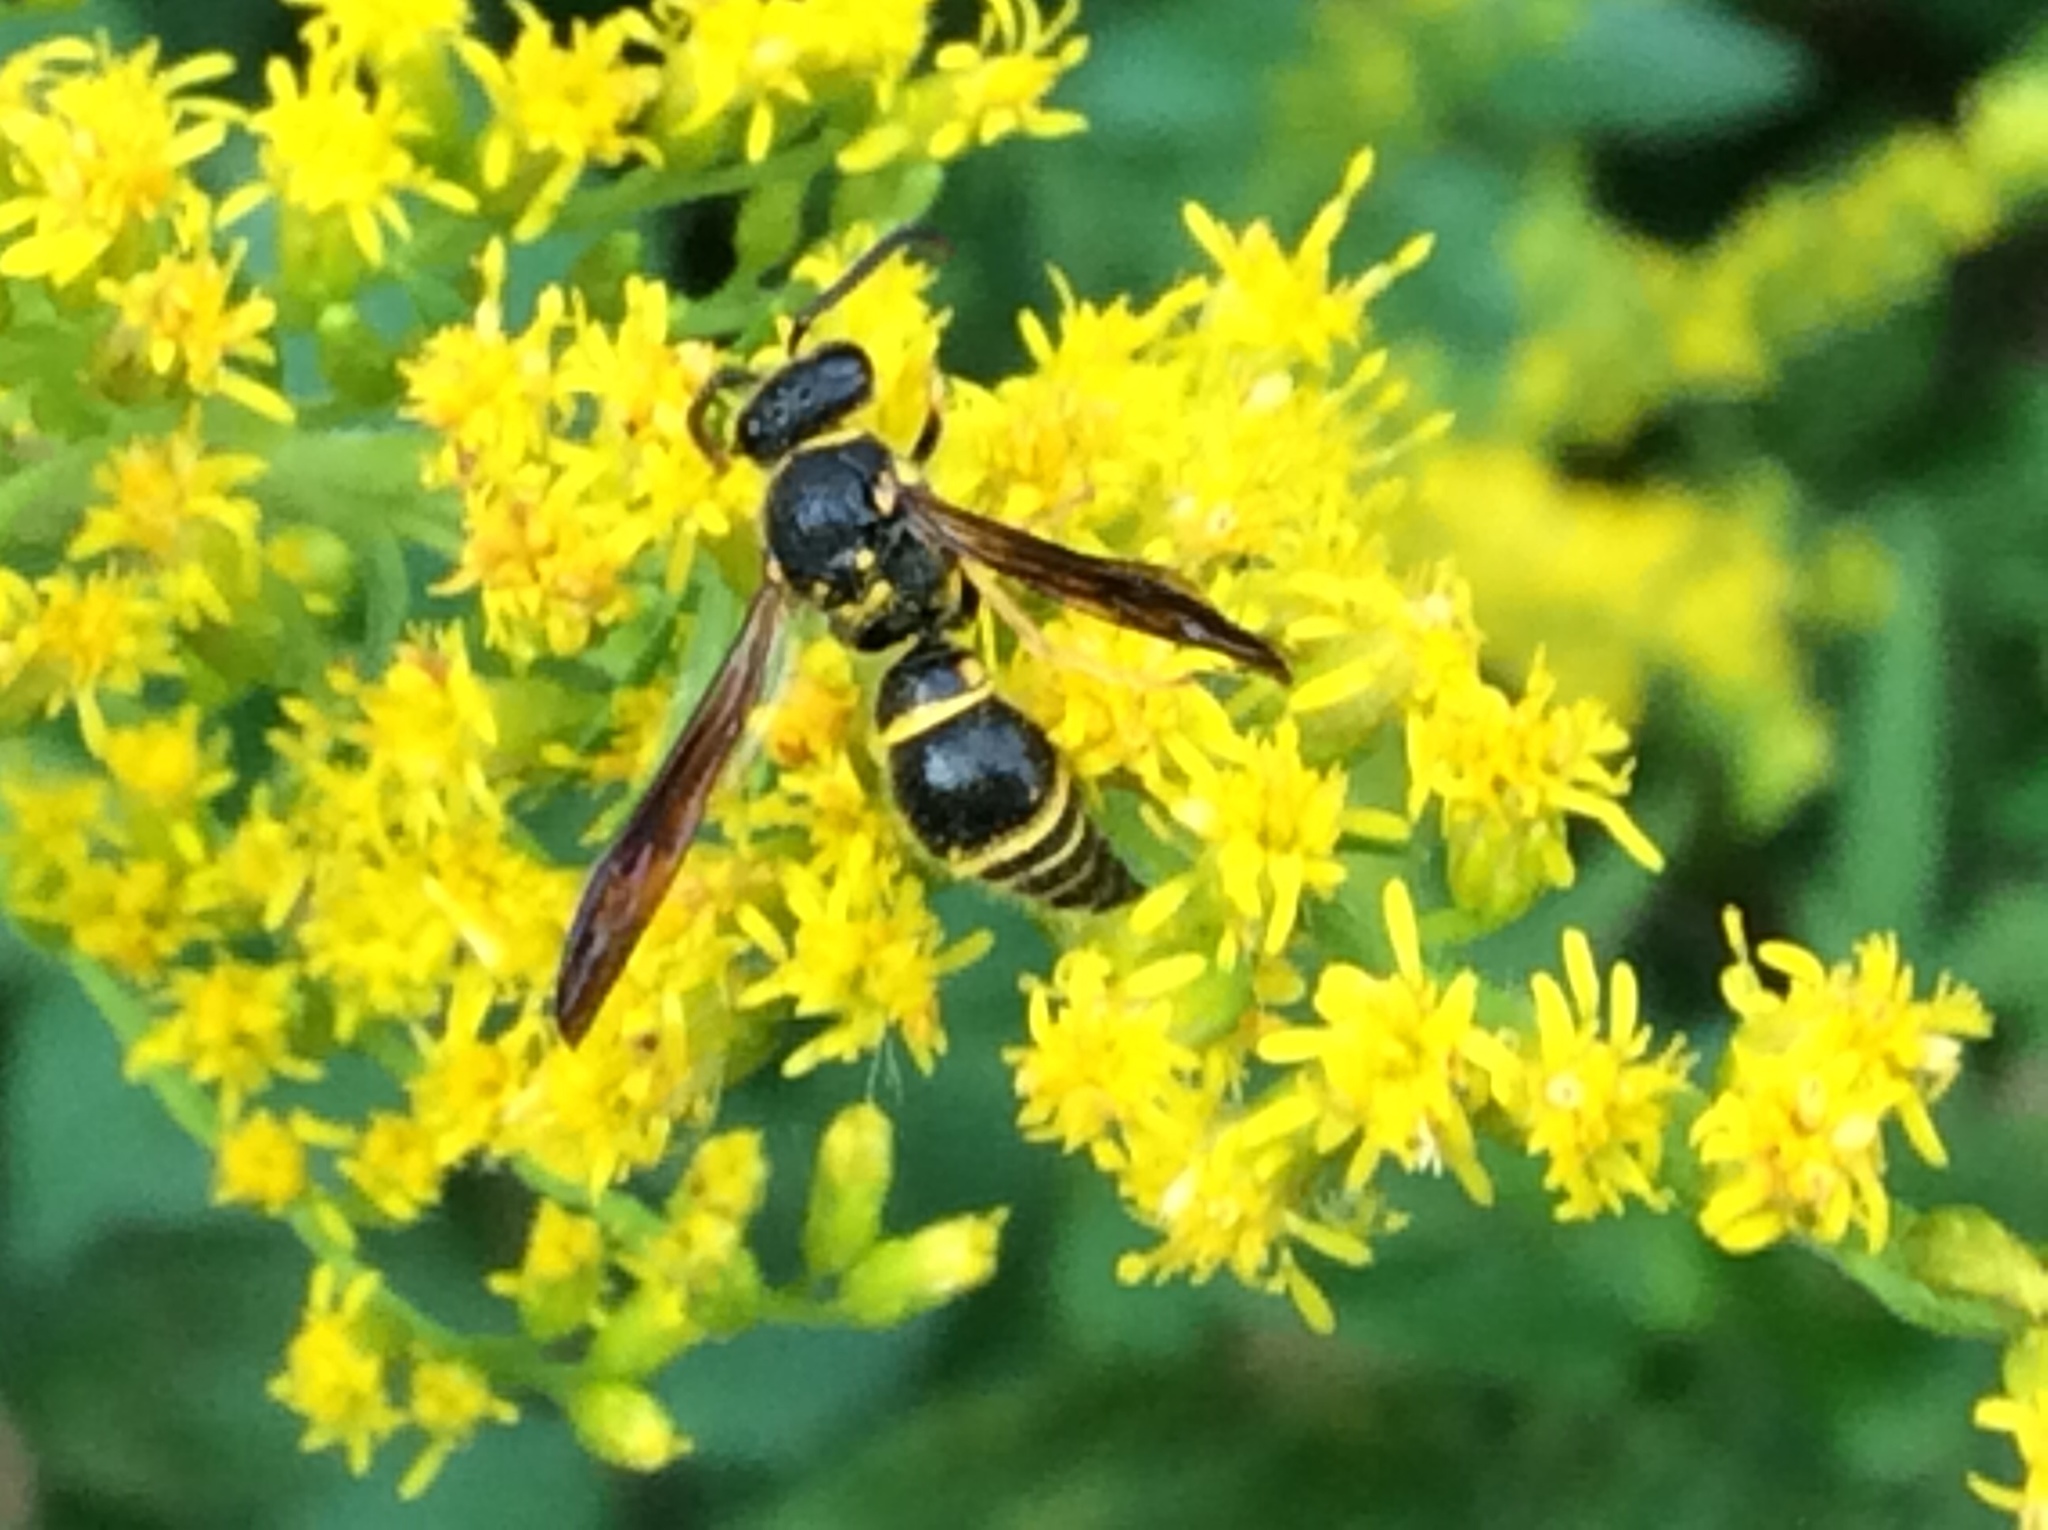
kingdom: Animalia
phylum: Arthropoda
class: Insecta
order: Hymenoptera
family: Vespidae
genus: Ancistrocerus
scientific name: Ancistrocerus campestris
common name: Smiling mason wasp
